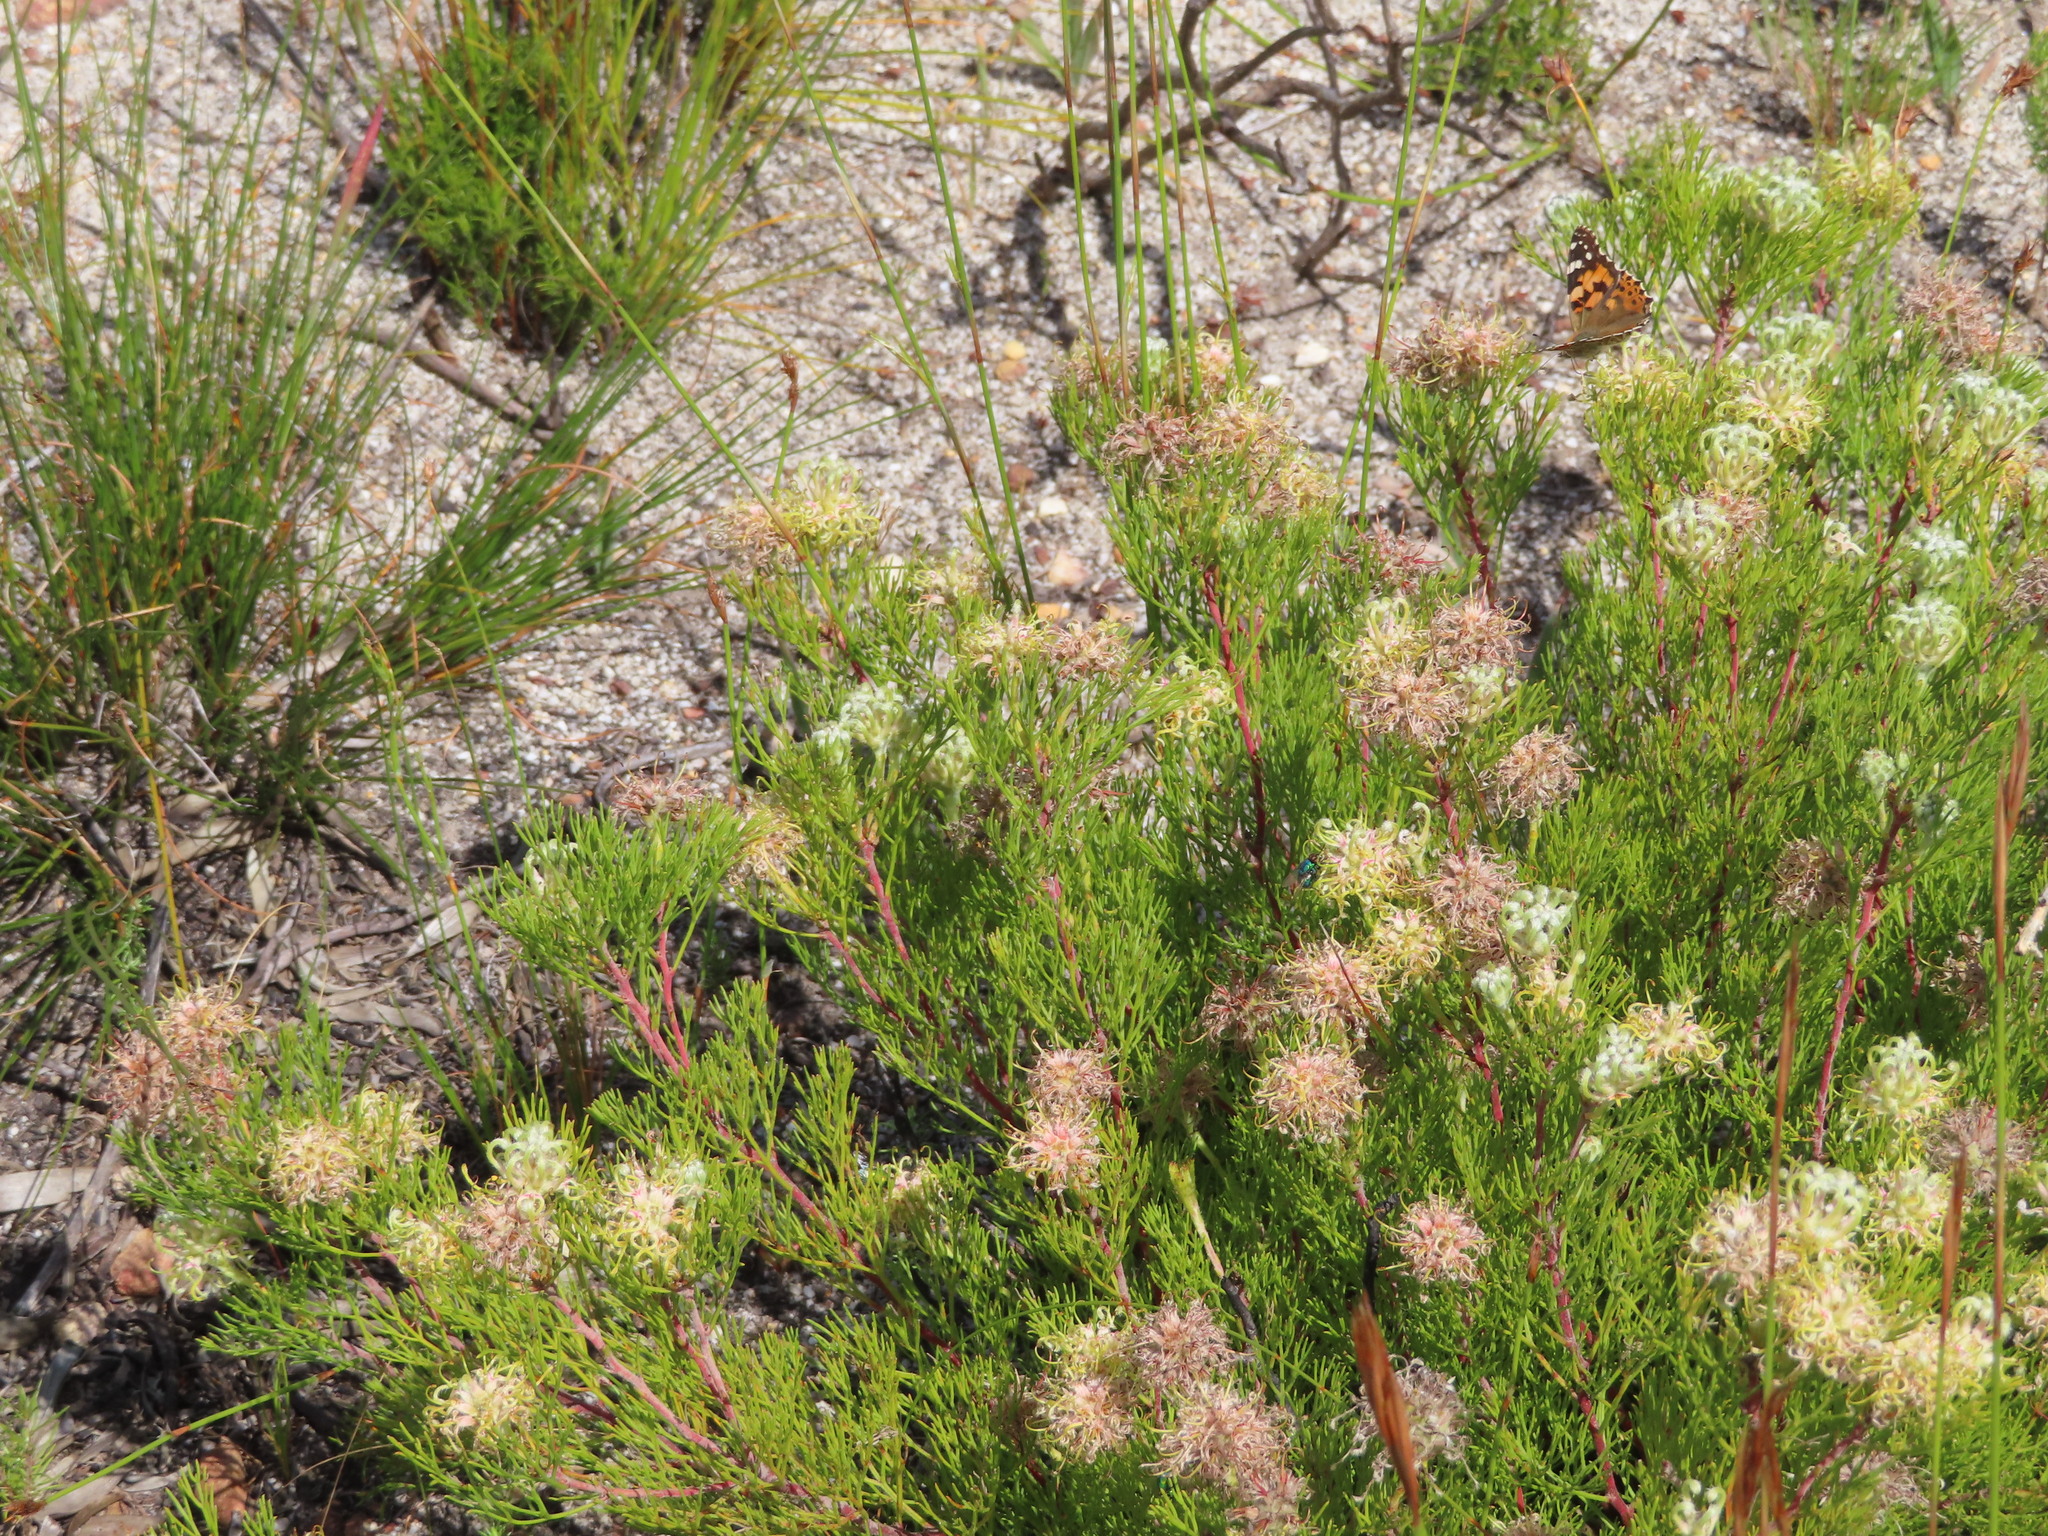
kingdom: Plantae
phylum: Tracheophyta
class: Magnoliopsida
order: Proteales
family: Proteaceae
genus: Serruria
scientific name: Serruria
